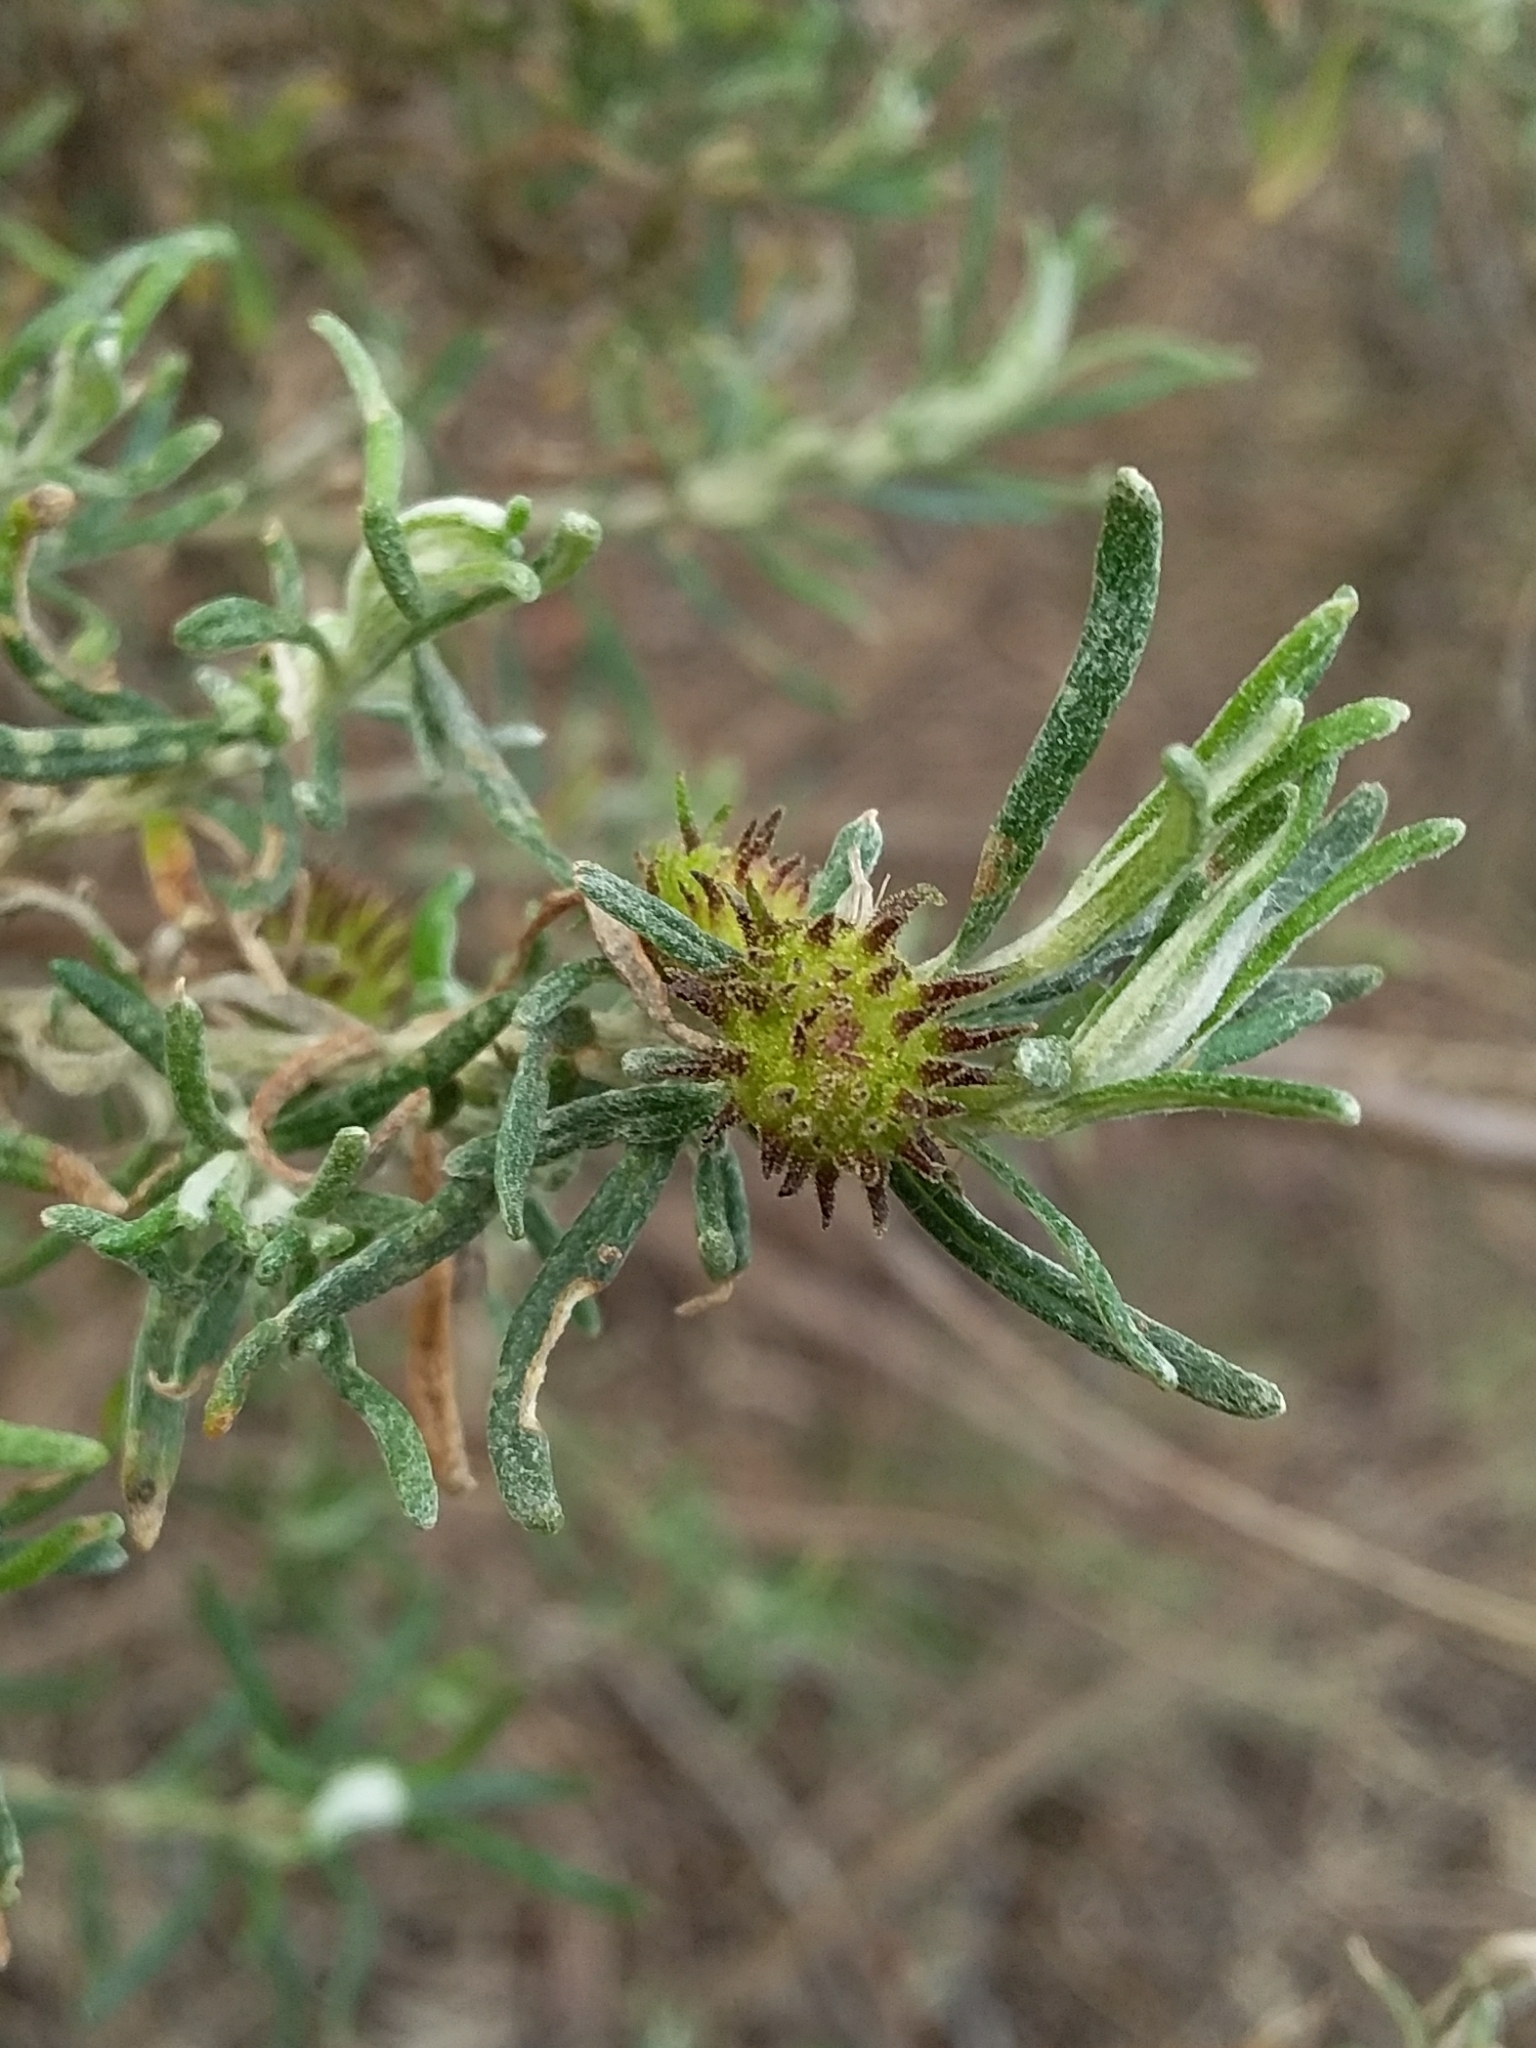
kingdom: Animalia
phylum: Arthropoda
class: Insecta
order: Diptera
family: Cecidomyiidae
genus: Trigonomyia
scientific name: Trigonomyia ananas
